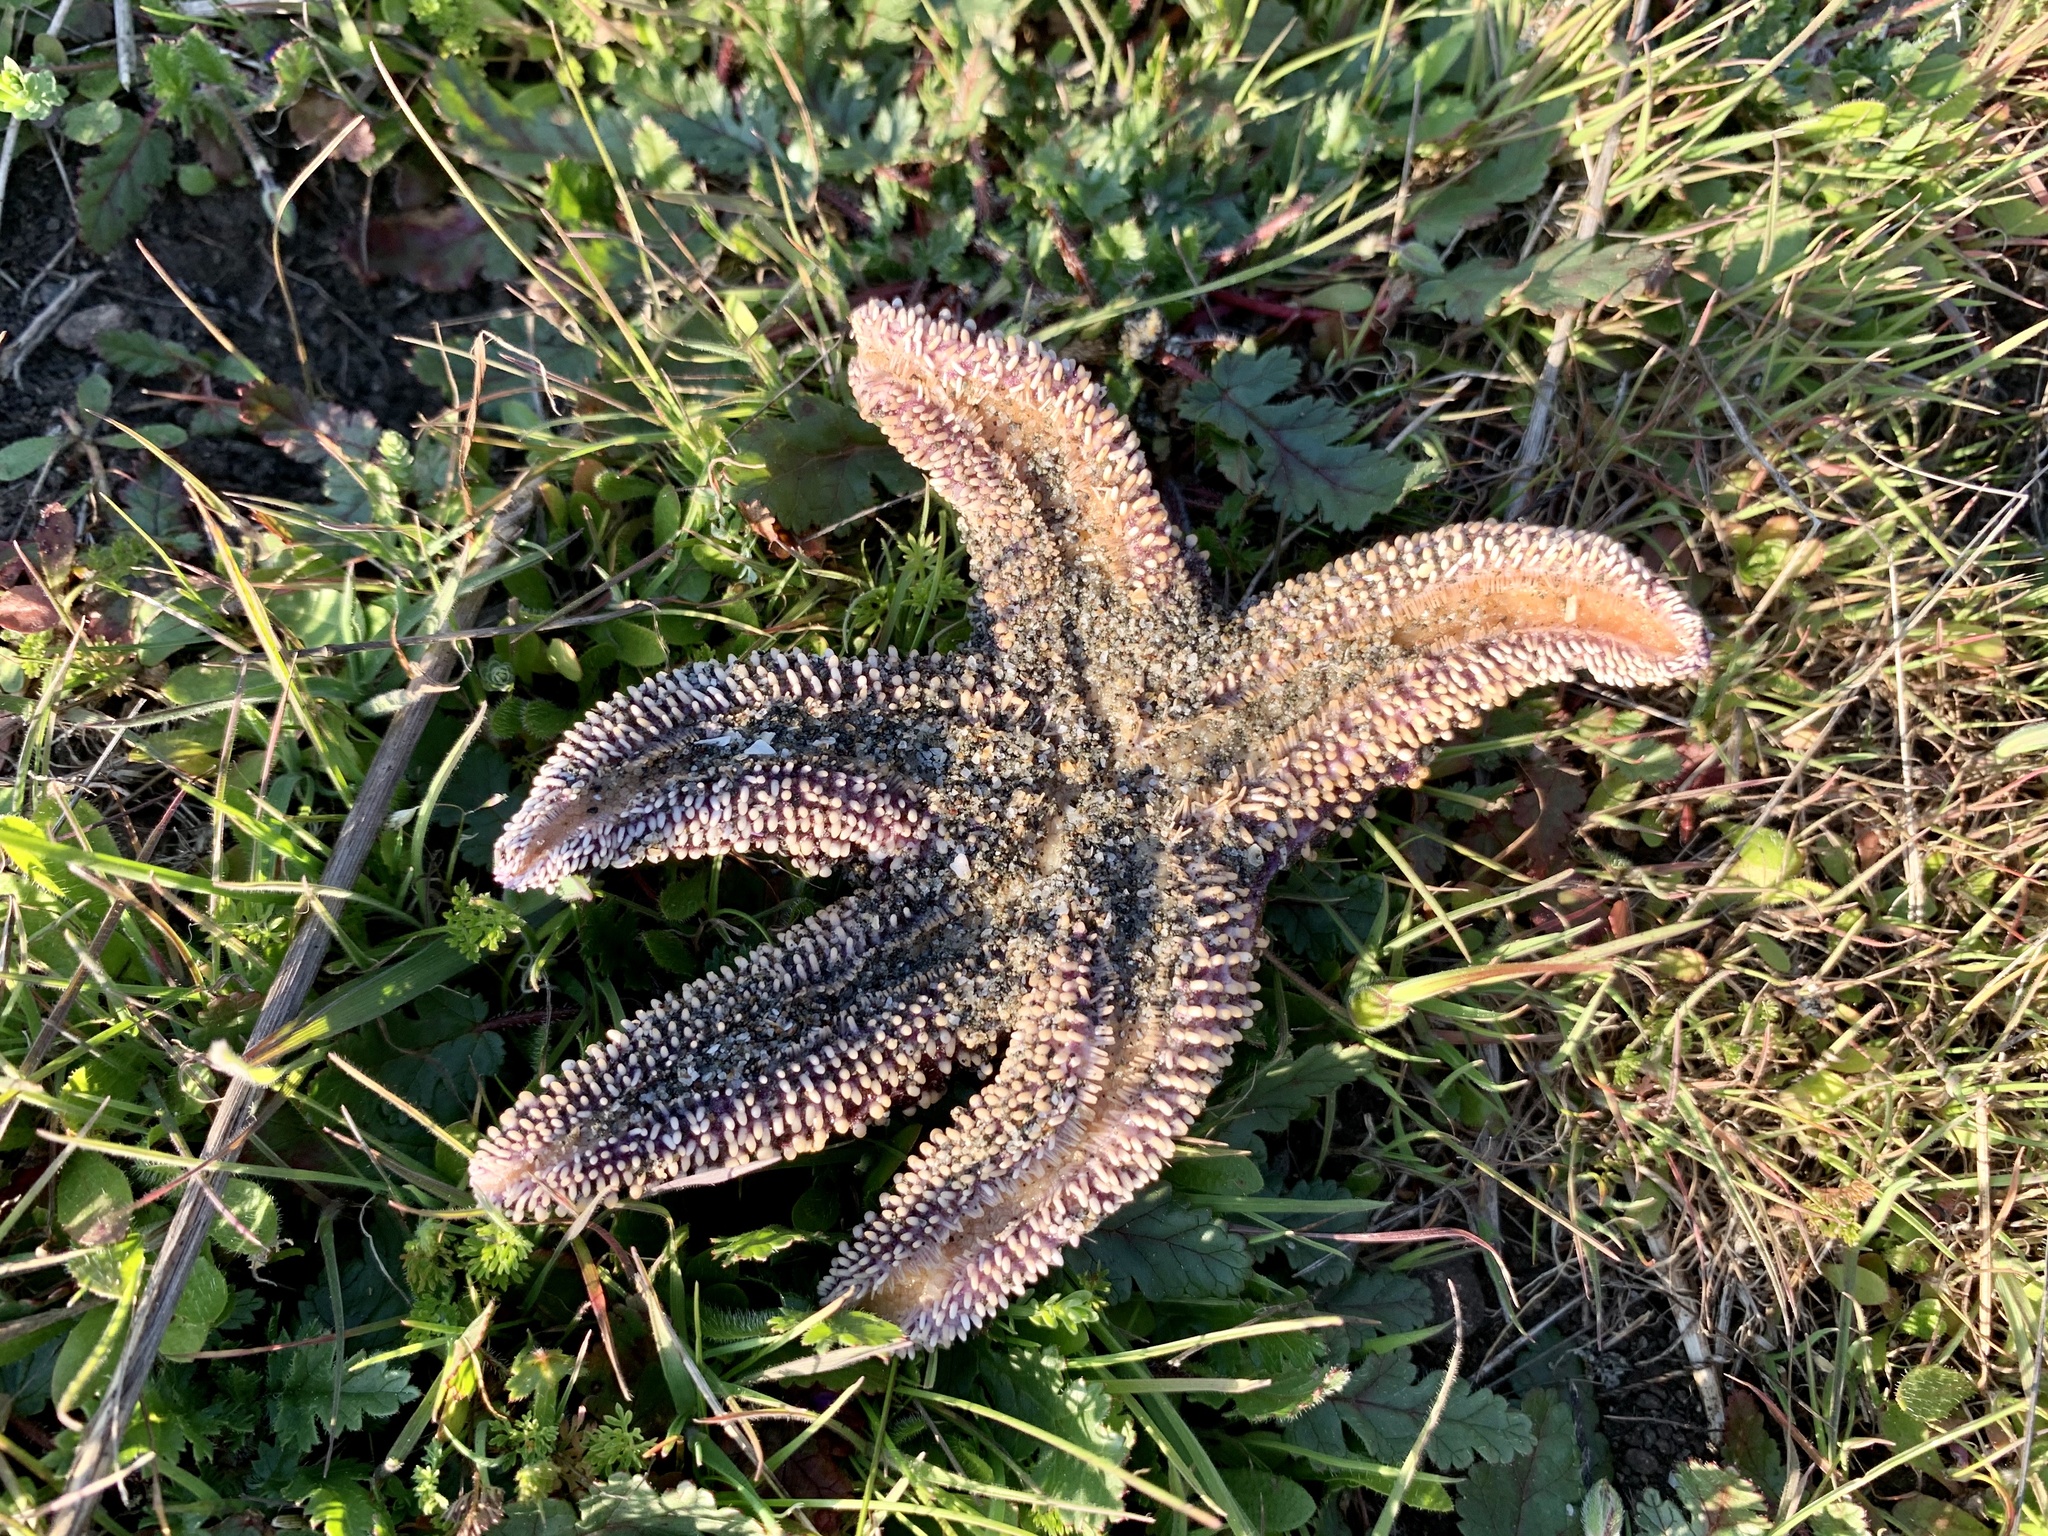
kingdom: Animalia
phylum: Echinodermata
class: Asteroidea
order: Forcipulatida
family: Asteriidae
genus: Pisaster
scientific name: Pisaster ochraceus
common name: Ochre stars
